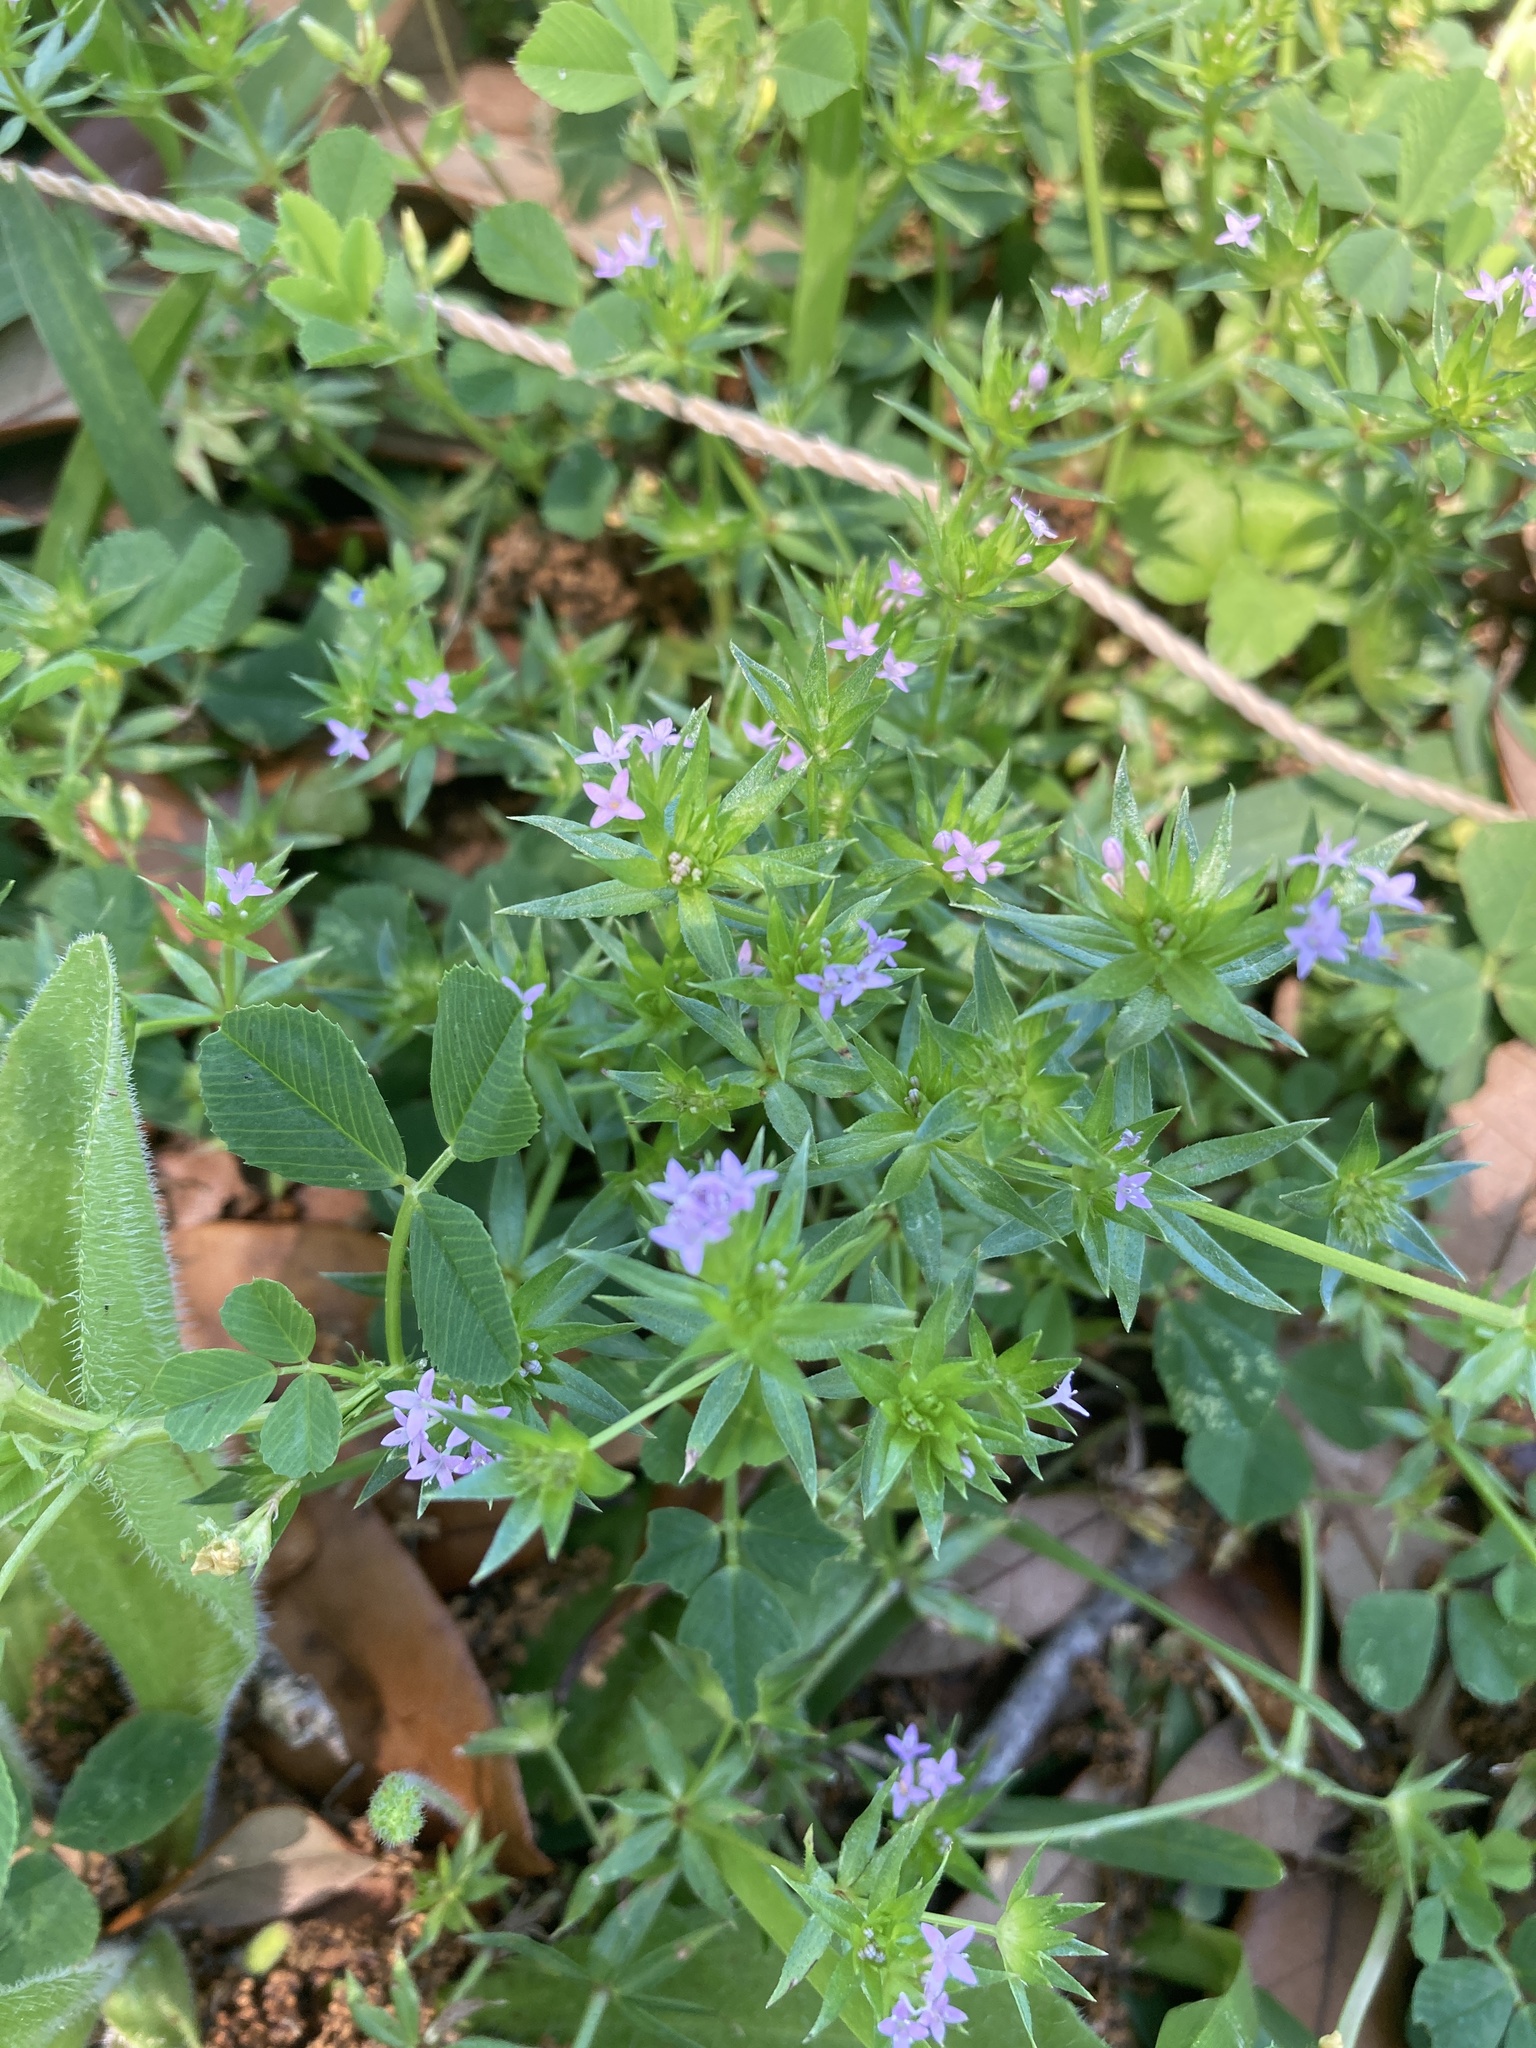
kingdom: Plantae
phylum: Tracheophyta
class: Magnoliopsida
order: Gentianales
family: Rubiaceae
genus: Sherardia
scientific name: Sherardia arvensis
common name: Field madder
